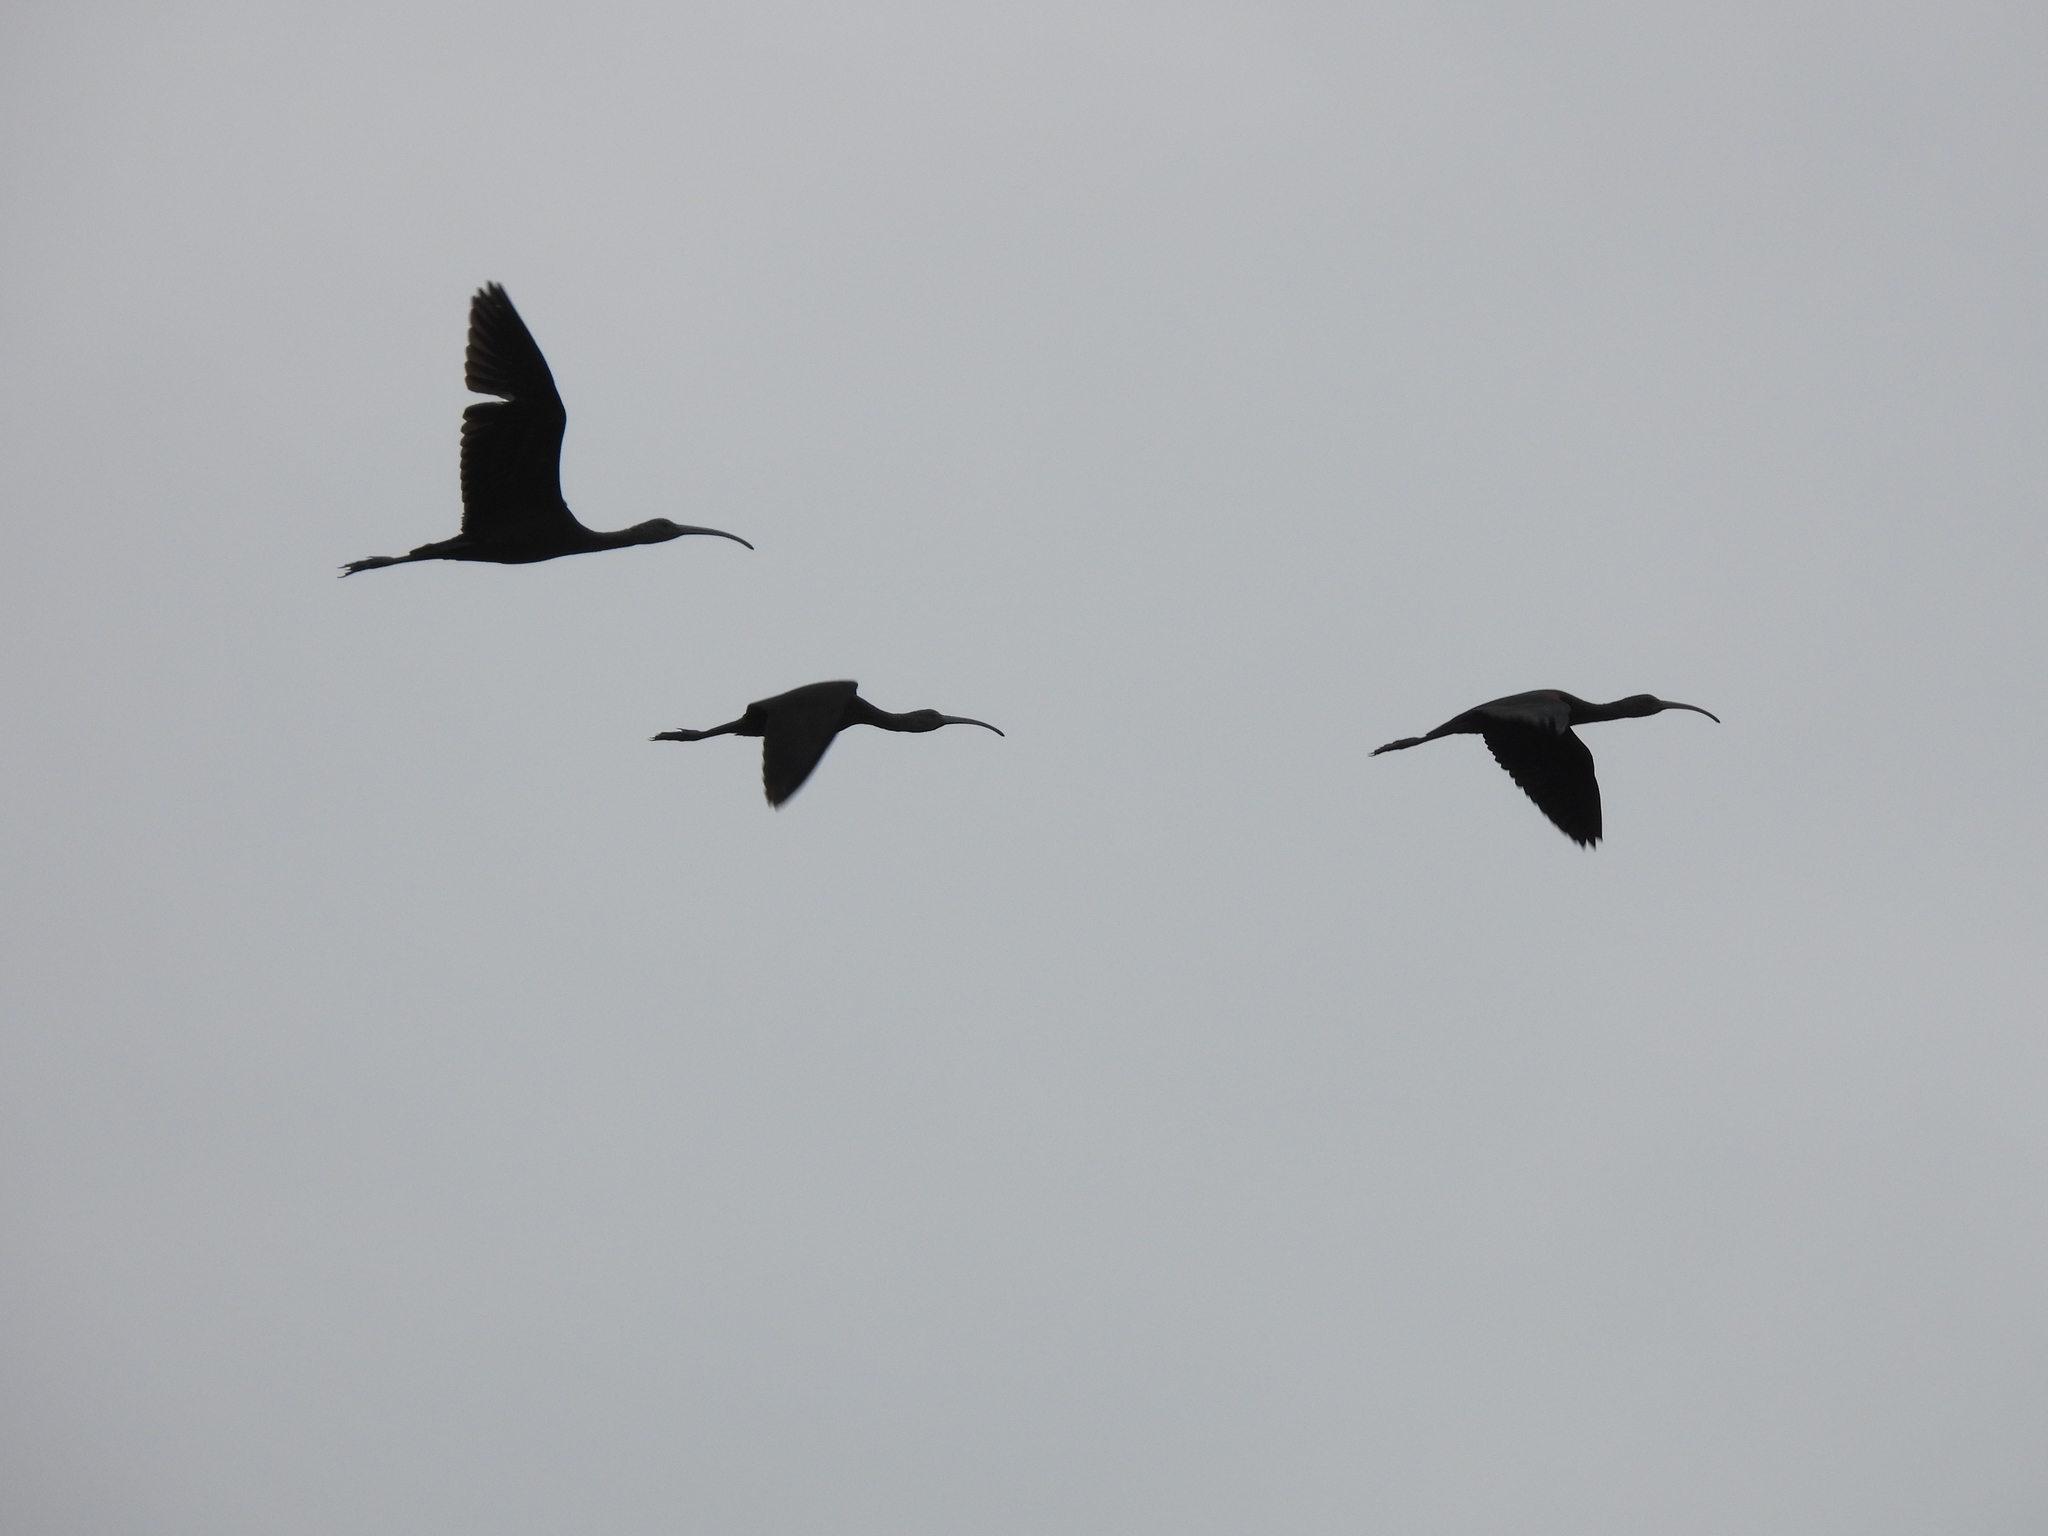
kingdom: Animalia
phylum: Chordata
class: Aves
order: Pelecaniformes
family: Threskiornithidae
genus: Plegadis
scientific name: Plegadis
